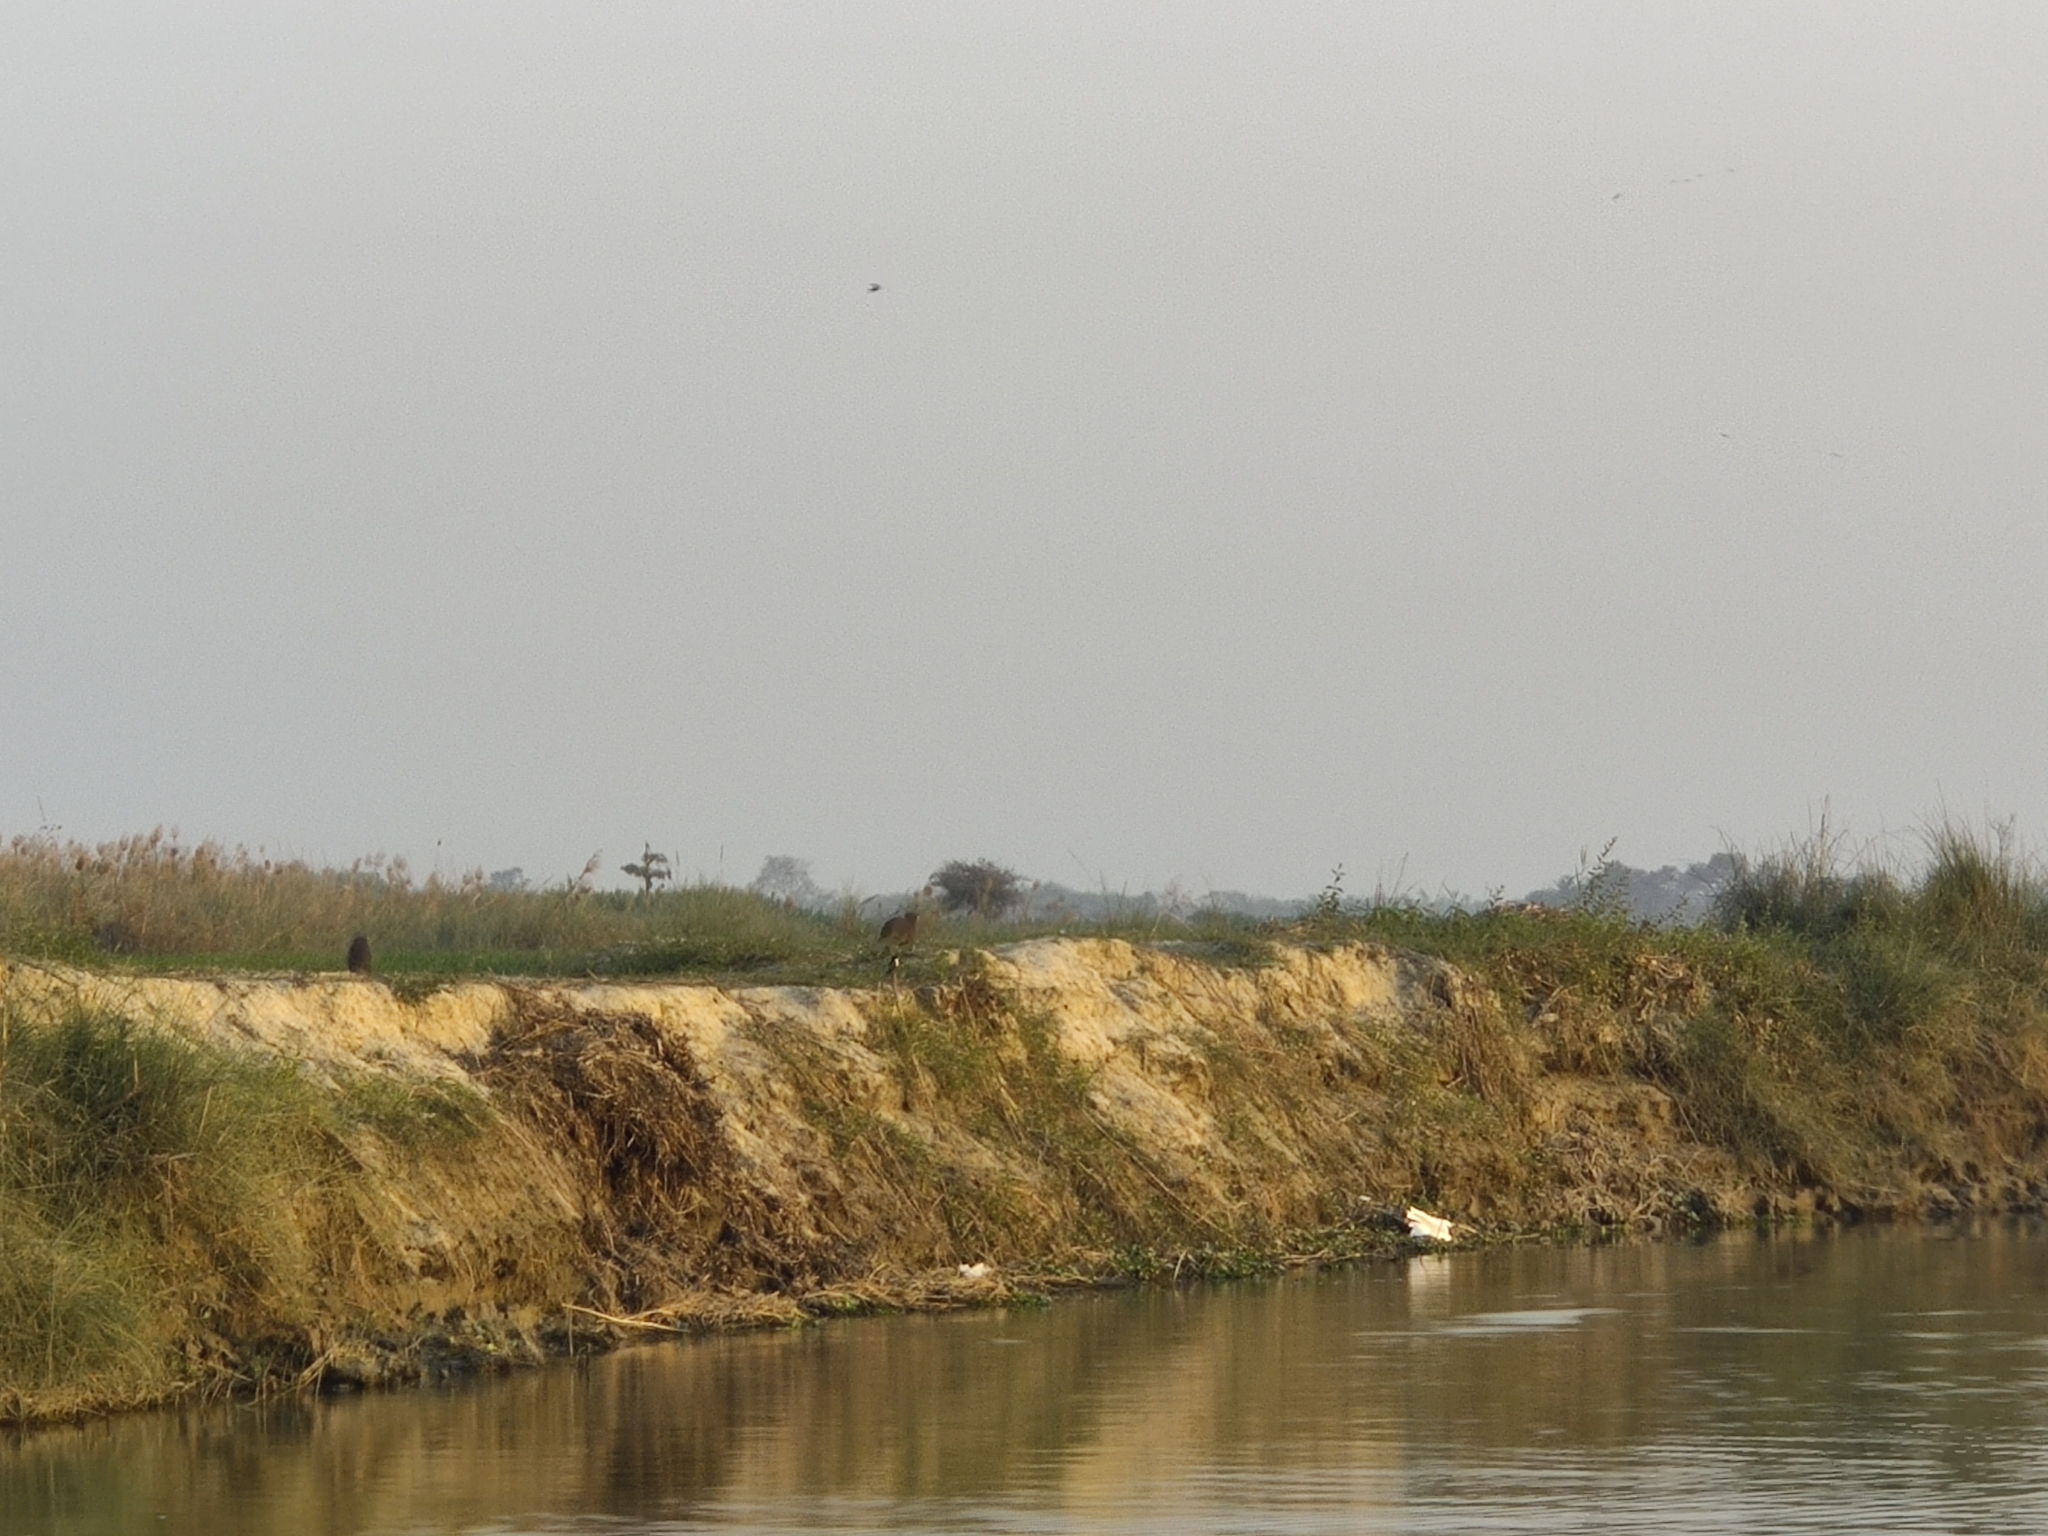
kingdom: Animalia
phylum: Chordata
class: Mammalia
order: Carnivora
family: Mustelidae
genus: Lutrogale
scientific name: Lutrogale perspicillata
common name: Smooth-coated otter
